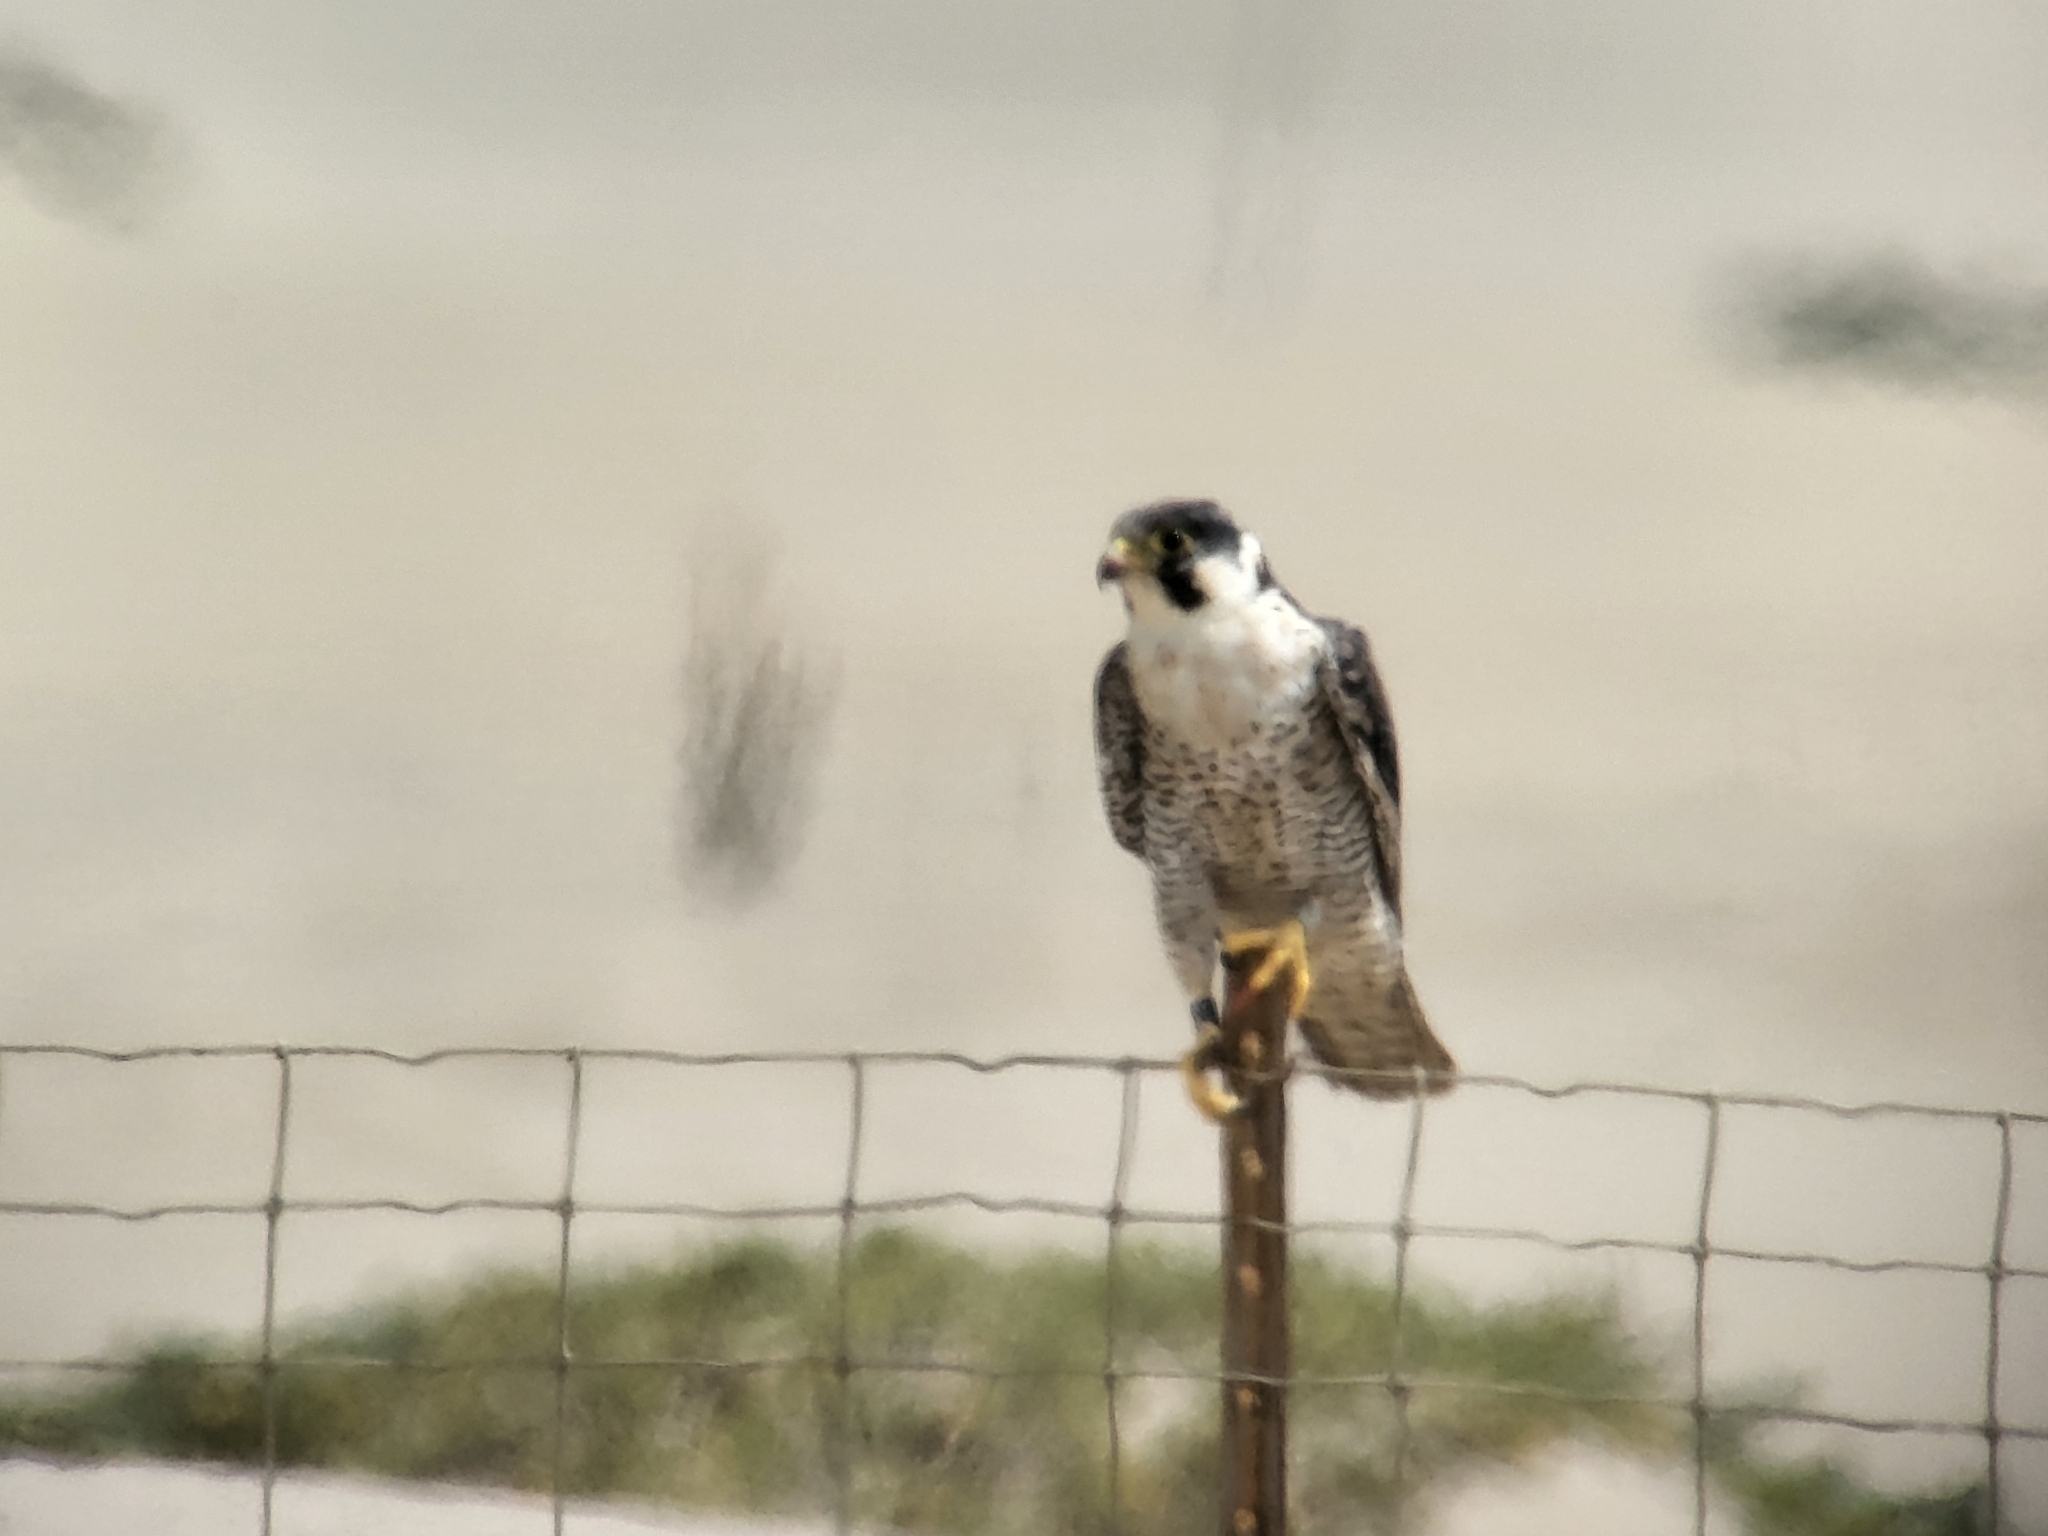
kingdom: Animalia
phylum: Chordata
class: Aves
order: Falconiformes
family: Falconidae
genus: Falco
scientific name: Falco peregrinus
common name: Peregrine falcon
